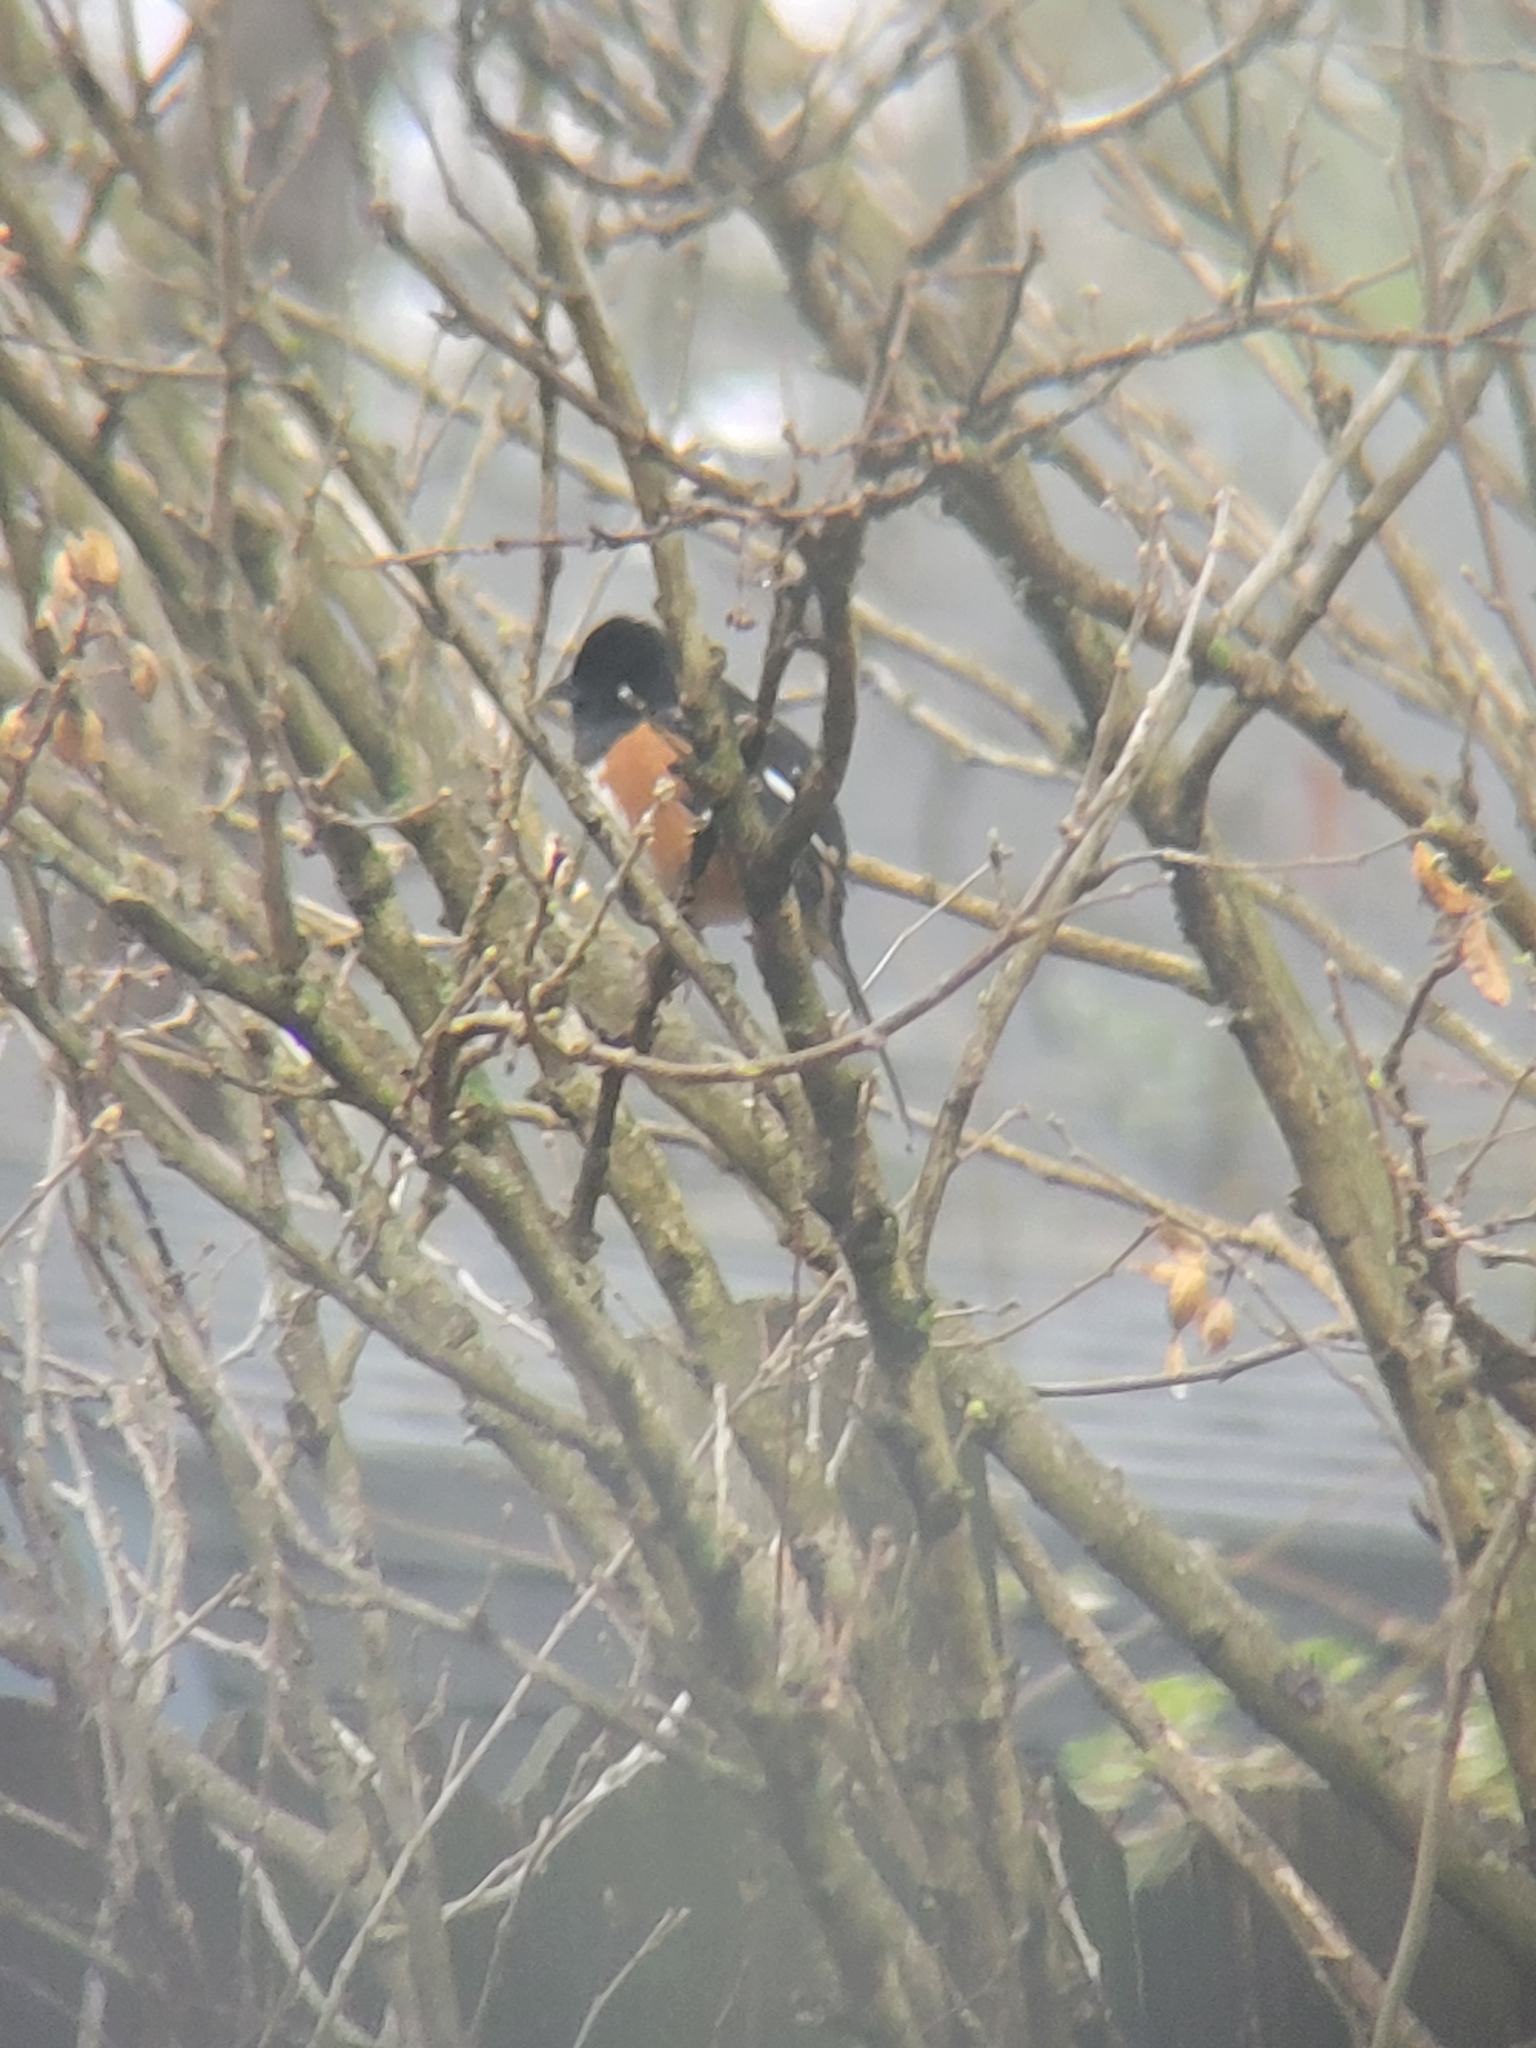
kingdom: Animalia
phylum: Chordata
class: Aves
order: Passeriformes
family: Passerellidae
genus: Pipilo
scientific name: Pipilo erythrophthalmus
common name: Eastern towhee
